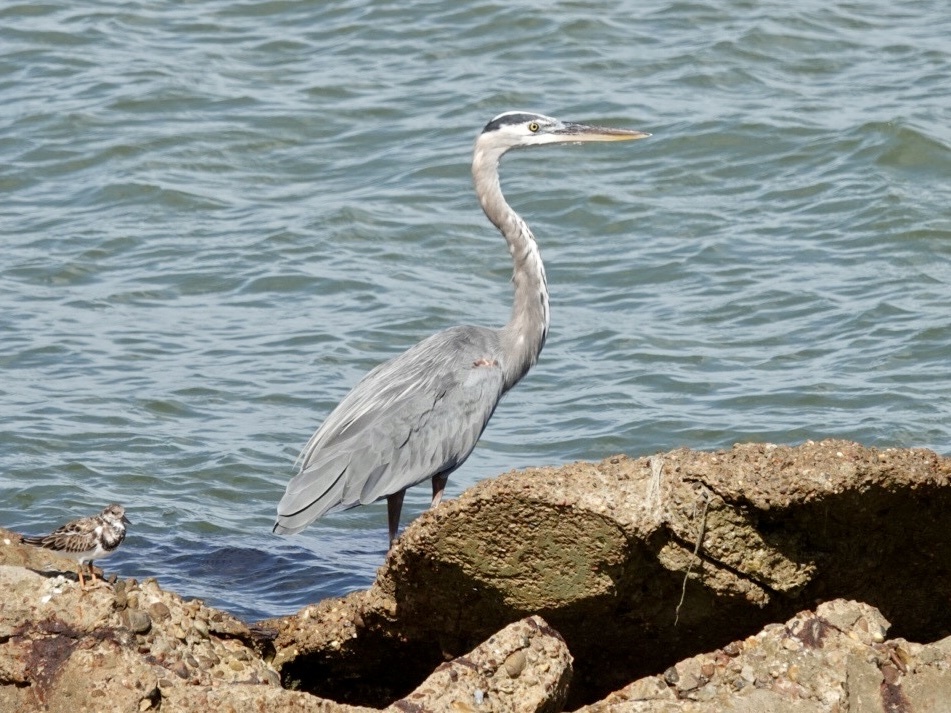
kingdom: Animalia
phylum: Chordata
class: Aves
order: Pelecaniformes
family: Ardeidae
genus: Ardea
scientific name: Ardea herodias
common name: Great blue heron
